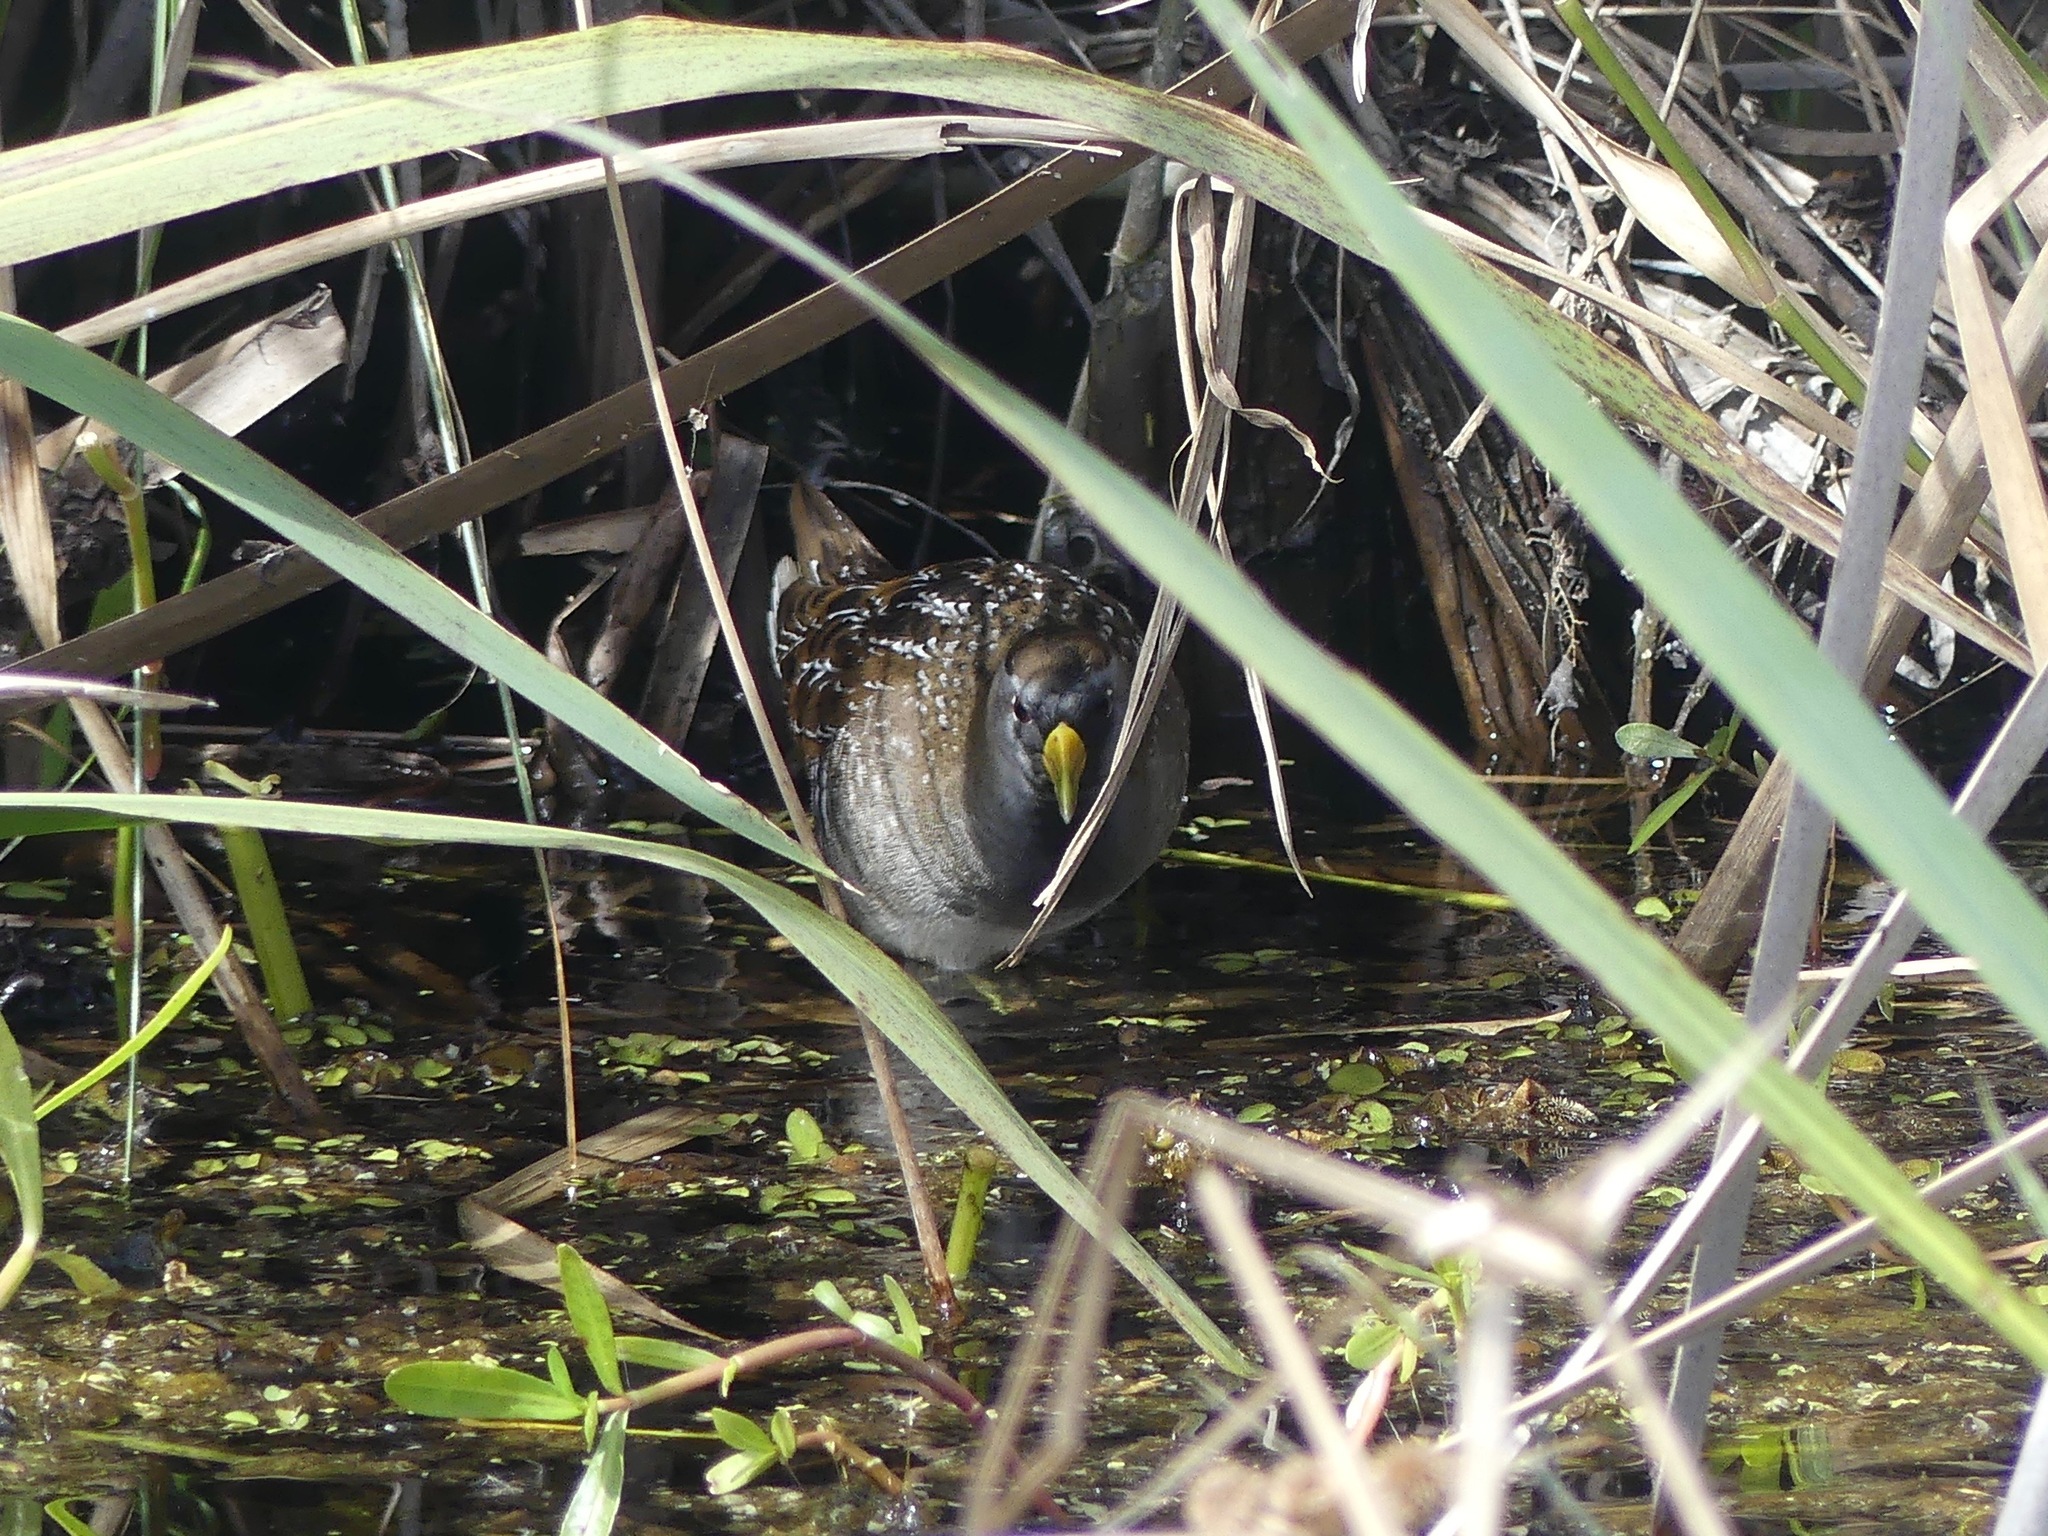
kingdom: Animalia
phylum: Chordata
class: Aves
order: Gruiformes
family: Rallidae
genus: Porzana
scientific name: Porzana carolina
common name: Sora
